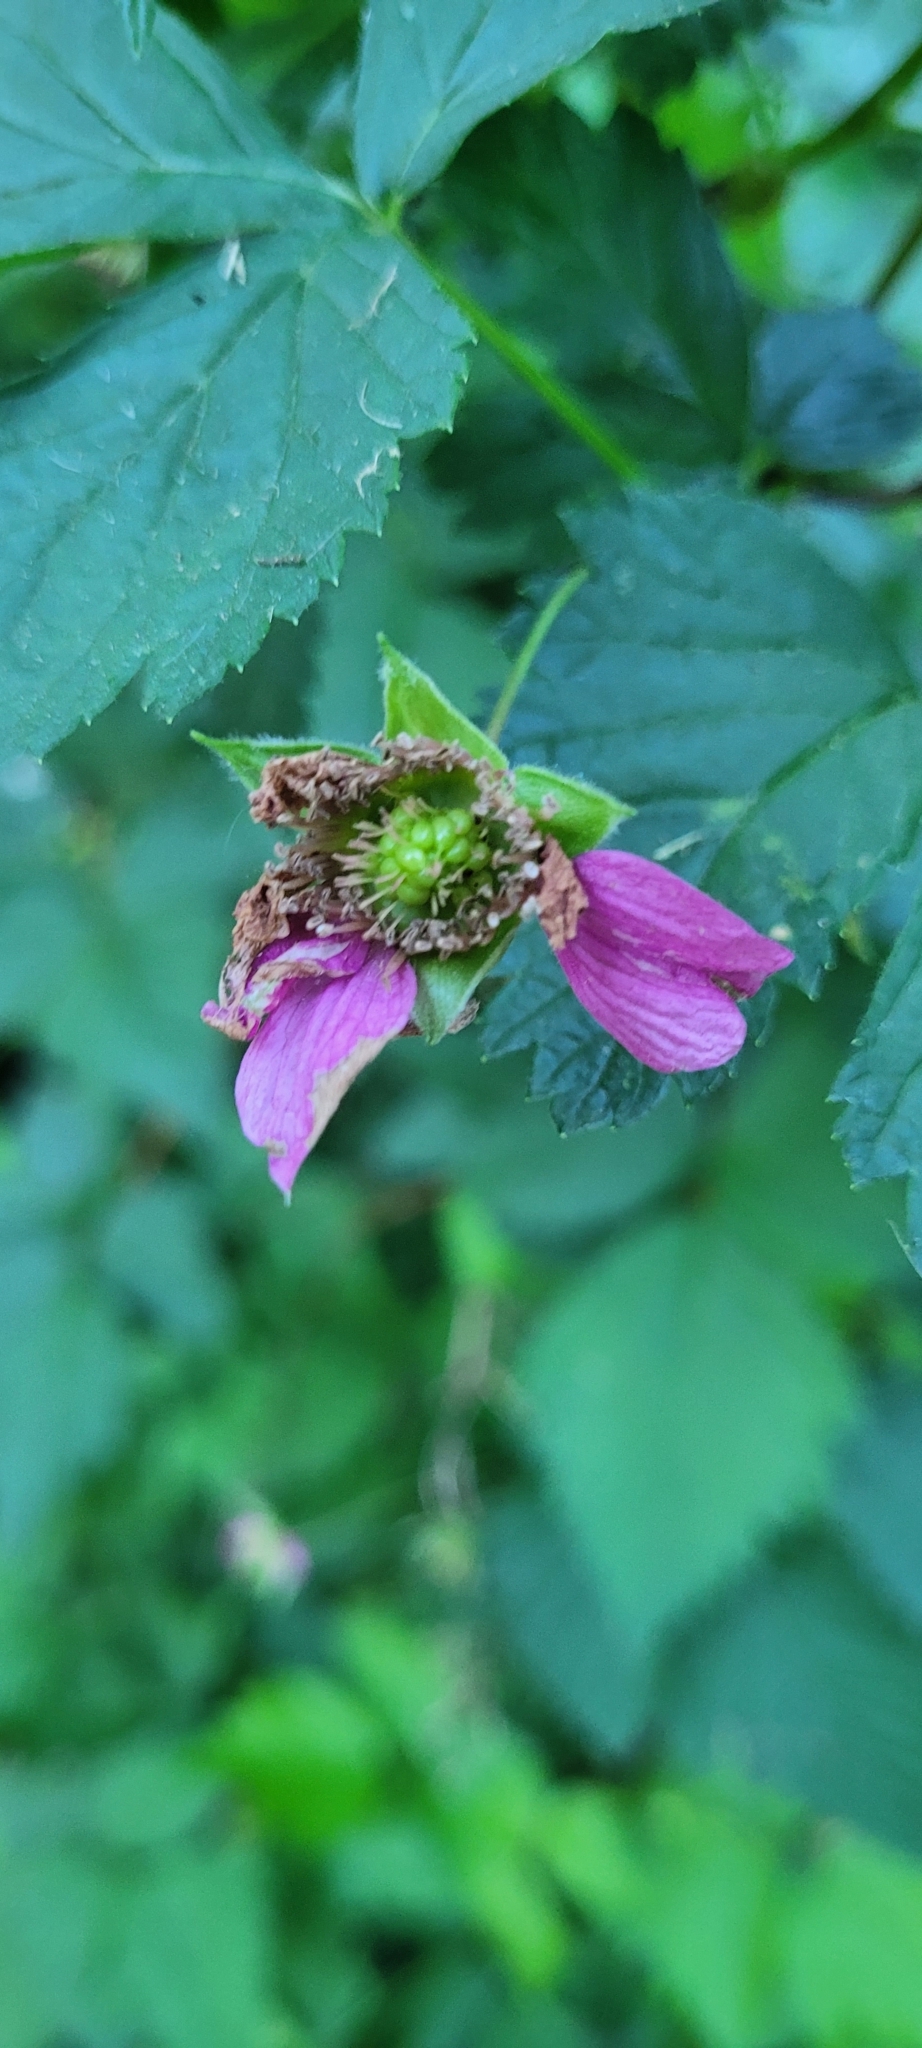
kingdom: Plantae
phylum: Tracheophyta
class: Magnoliopsida
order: Rosales
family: Rosaceae
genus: Rubus
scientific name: Rubus spectabilis
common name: Salmonberry
